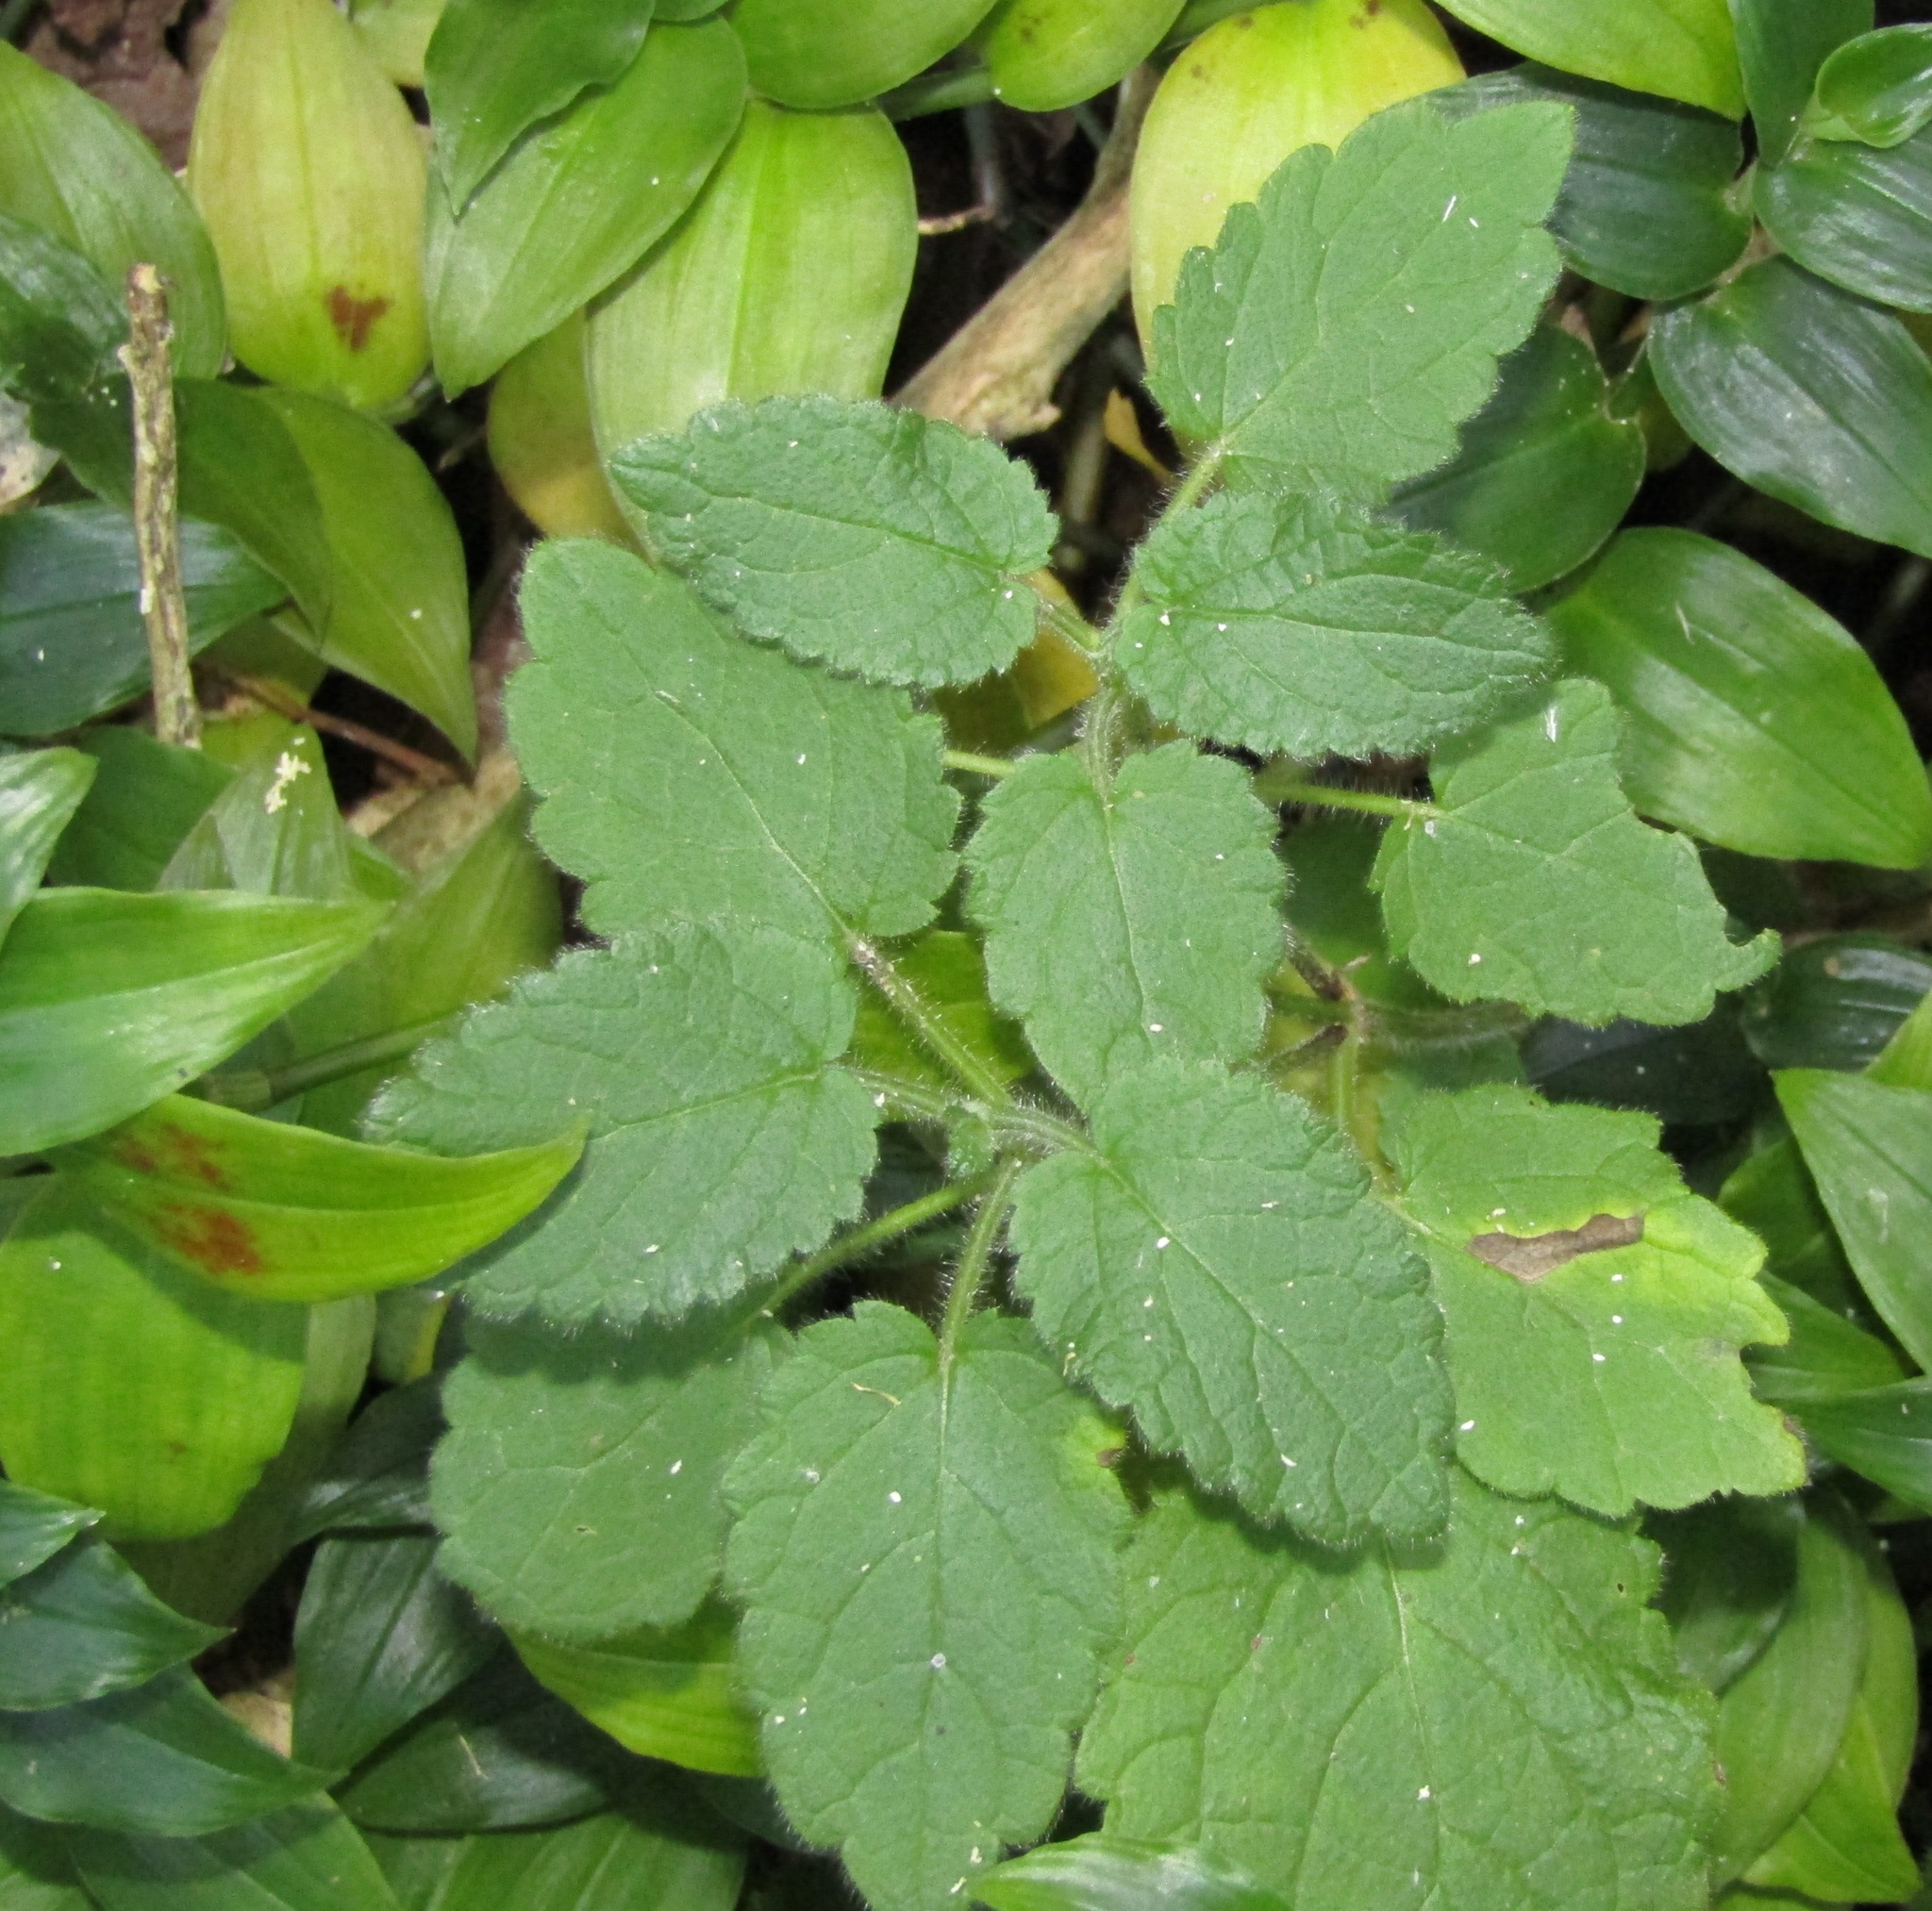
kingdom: Plantae
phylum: Tracheophyta
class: Magnoliopsida
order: Lamiales
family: Lamiaceae
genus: Stachys
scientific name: Stachys sylvatica
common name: Hedge woundwort
